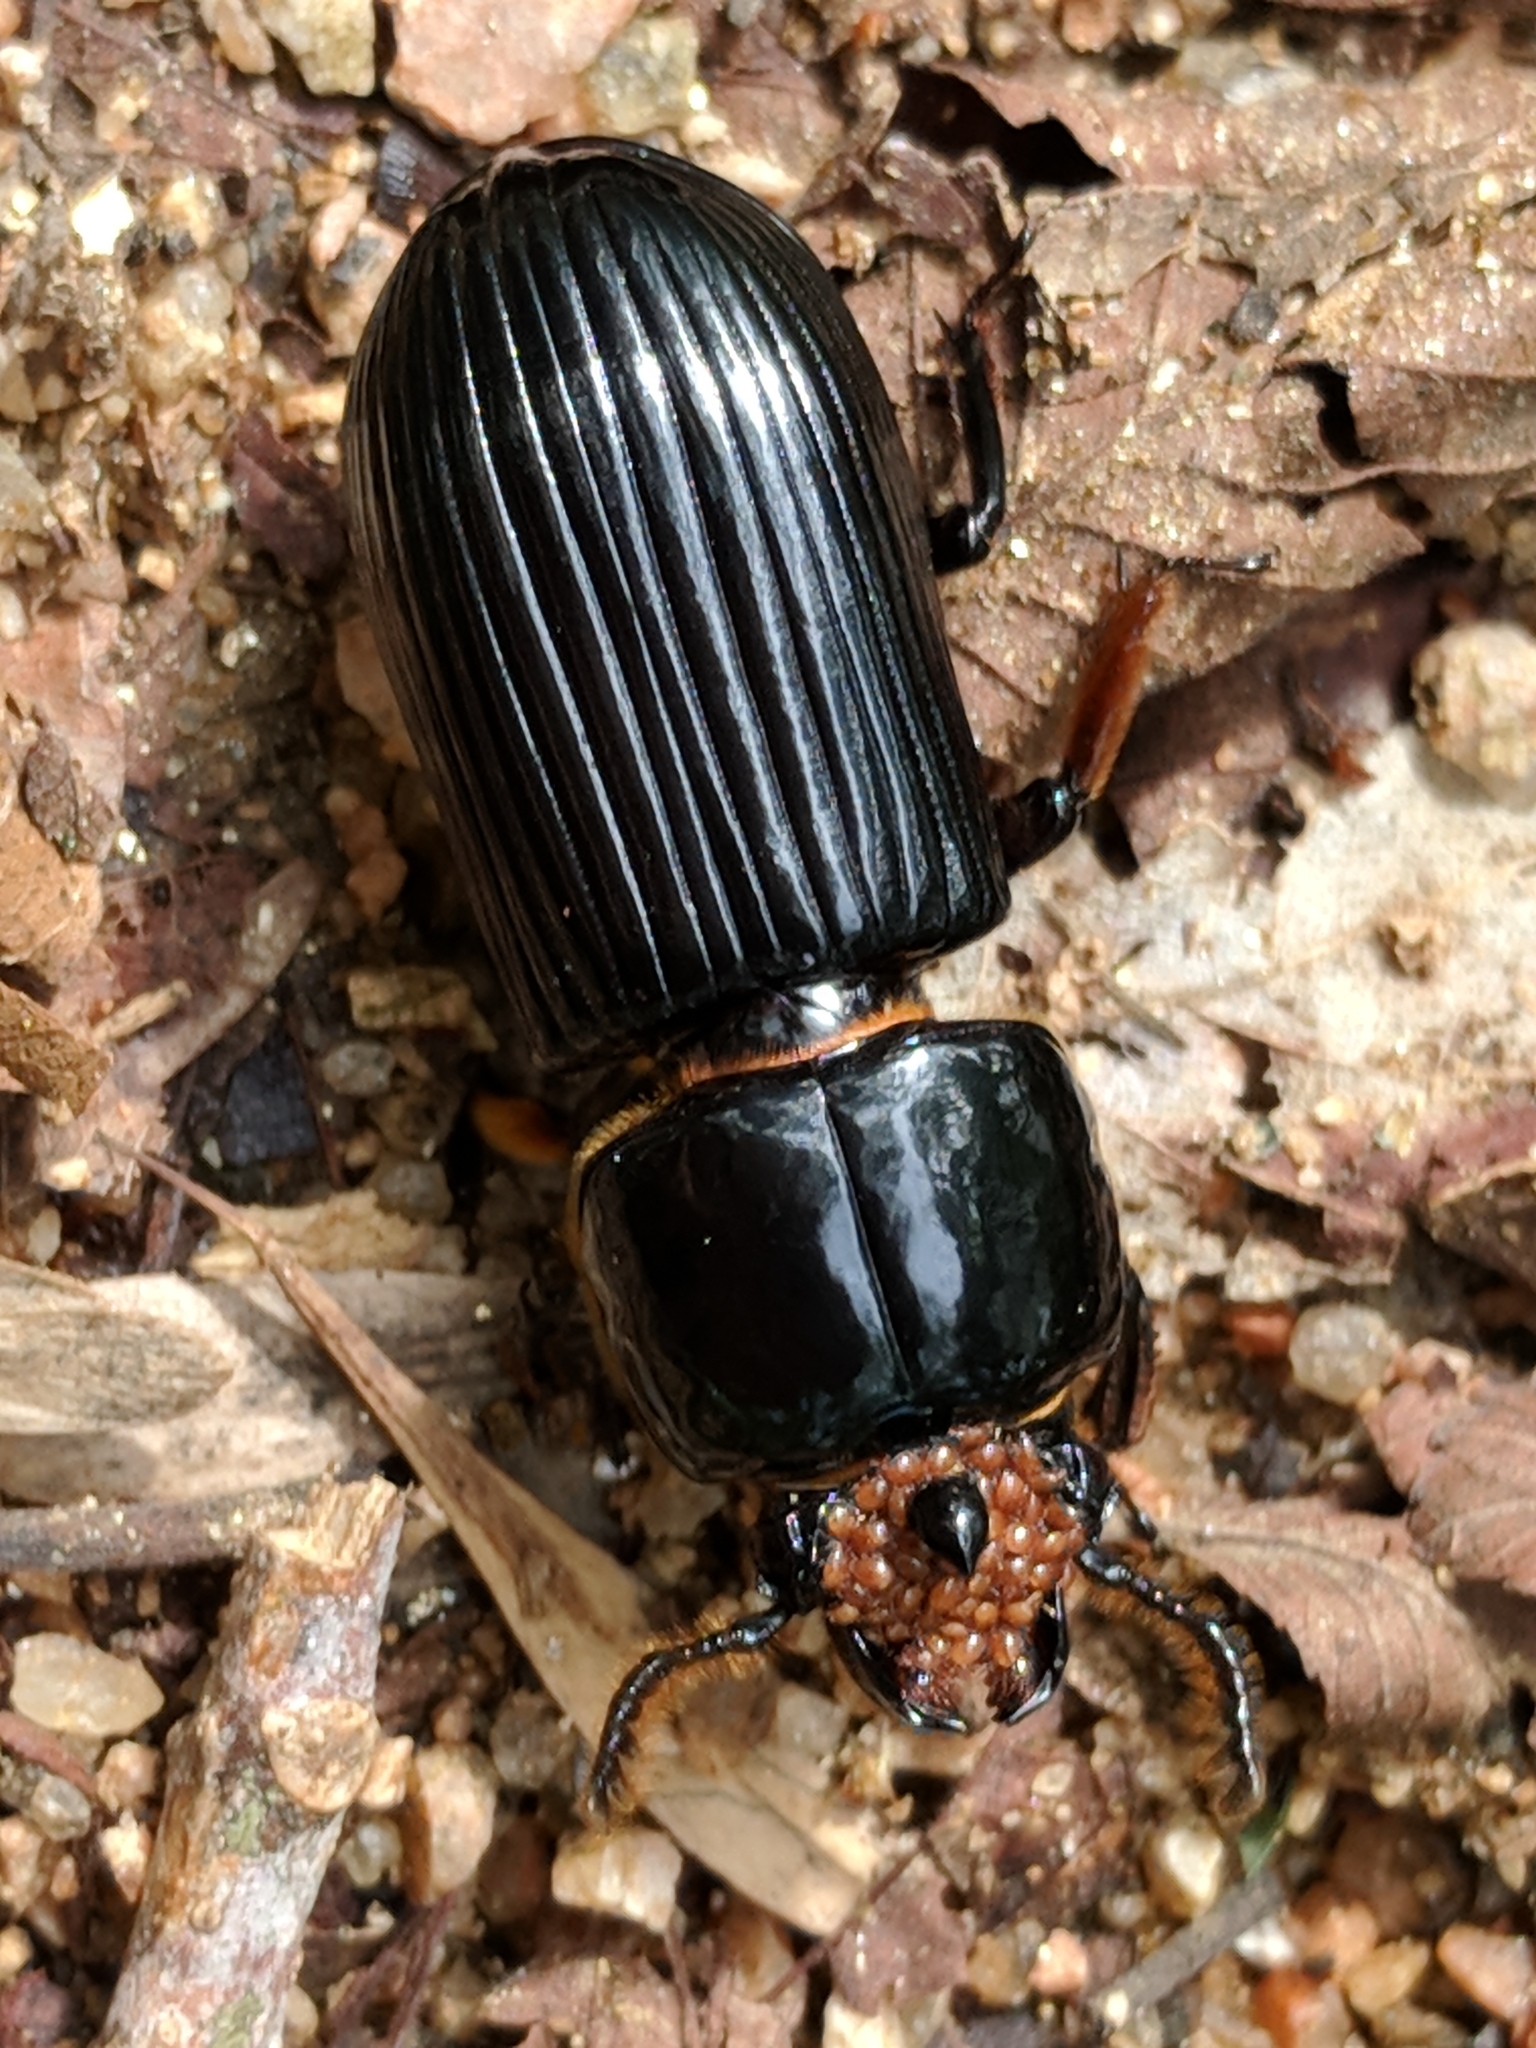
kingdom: Animalia
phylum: Arthropoda
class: Insecta
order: Coleoptera
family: Passalidae
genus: Odontotaenius
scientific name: Odontotaenius disjunctus
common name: Patent leather beetle
